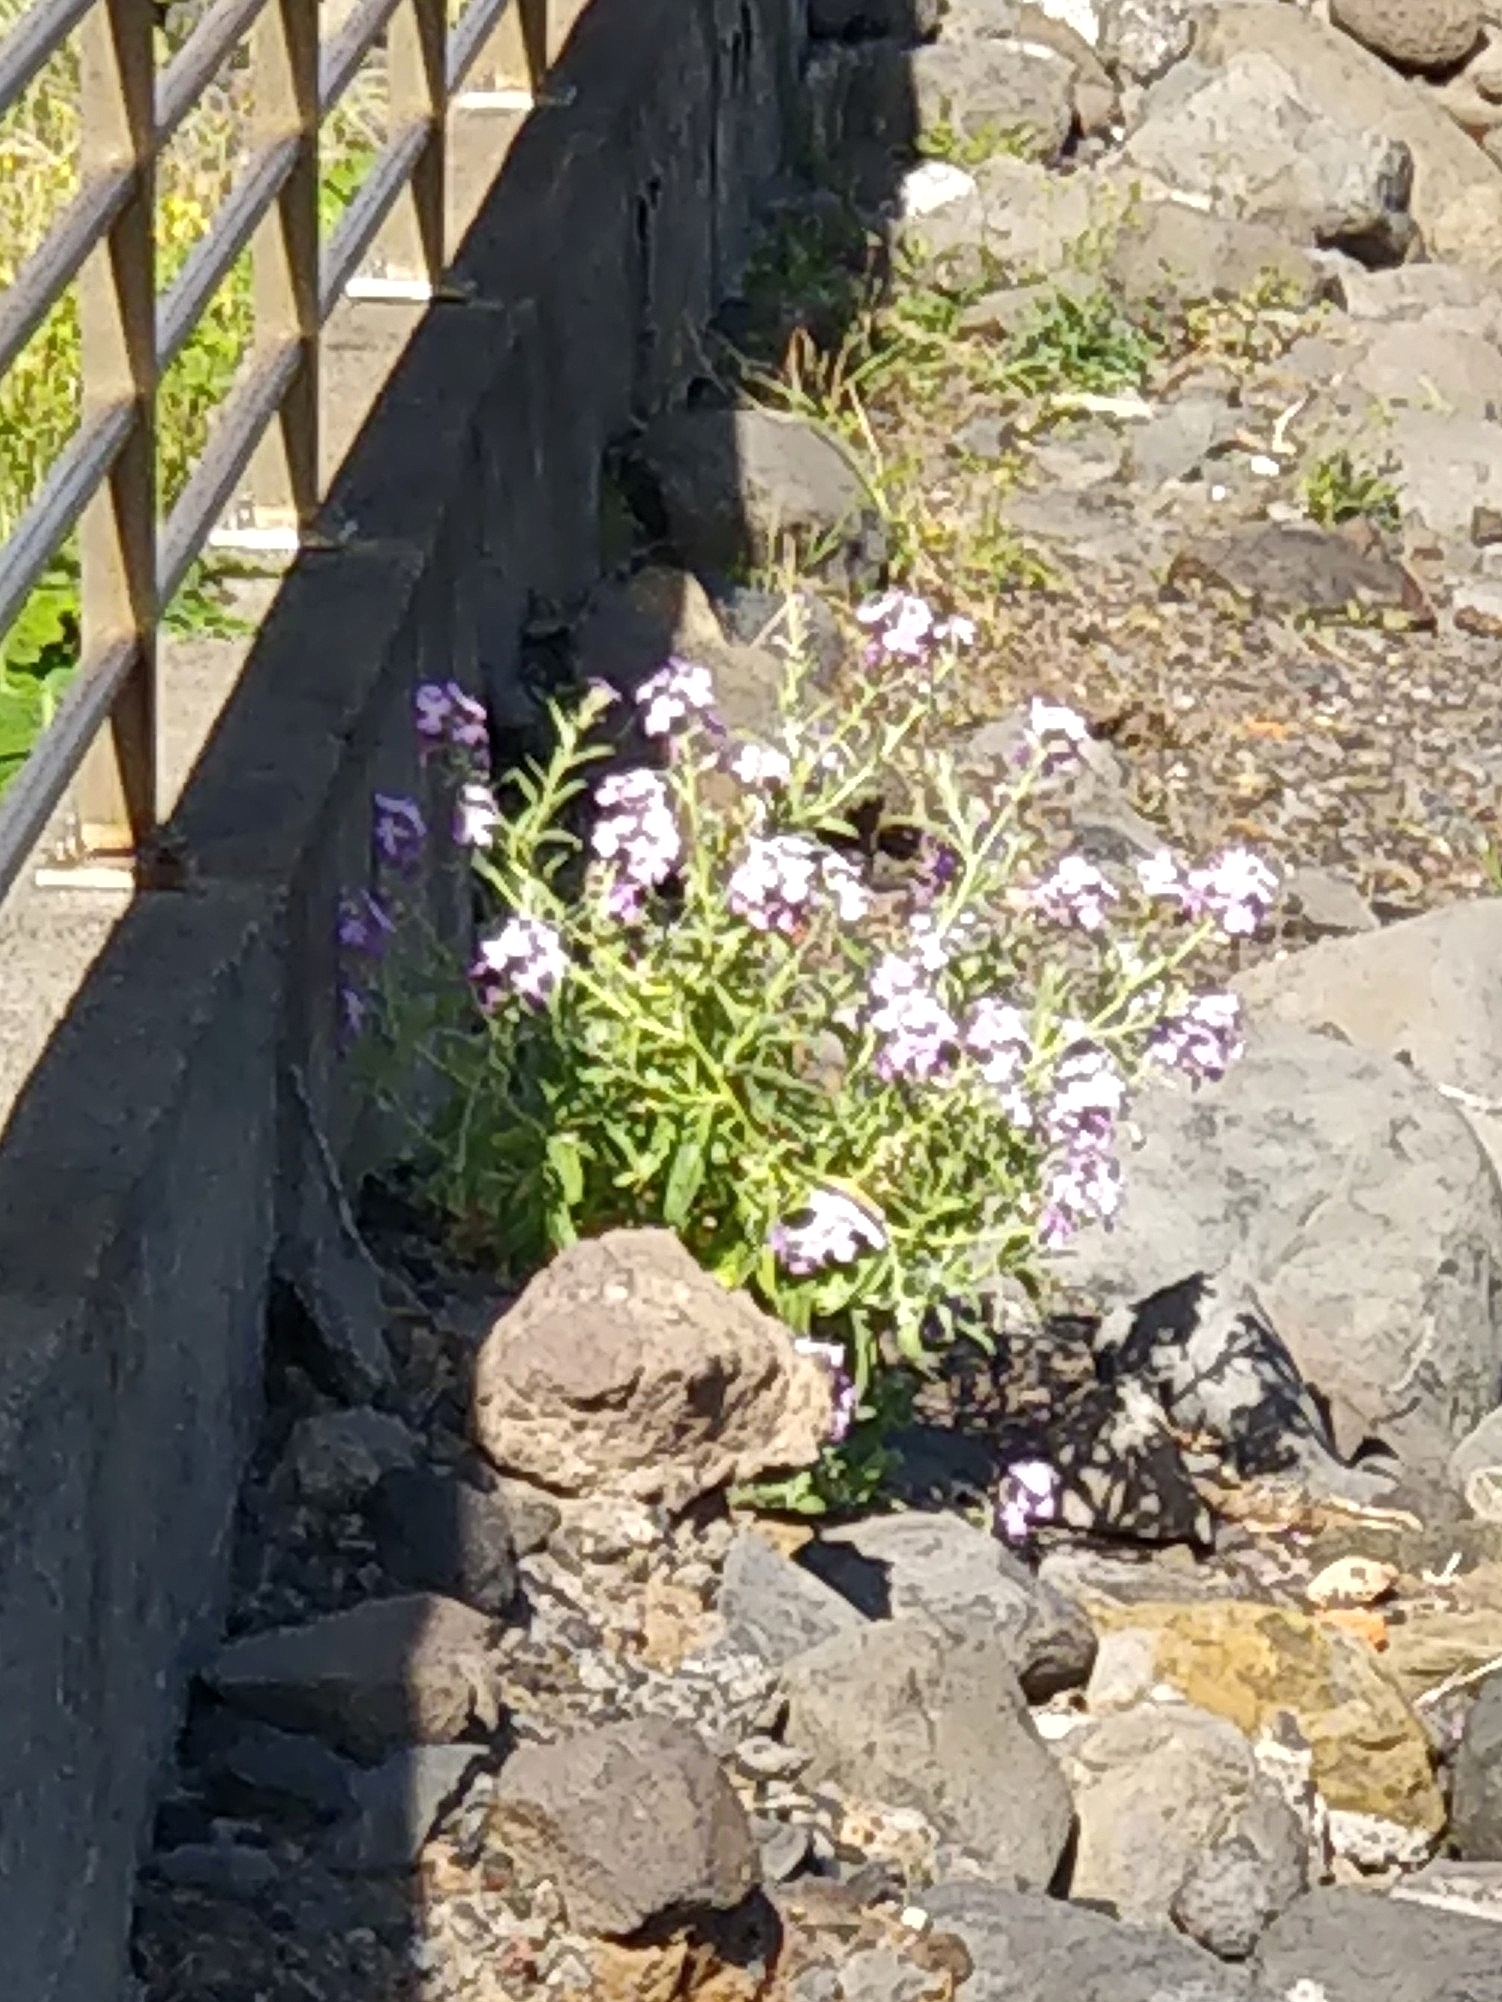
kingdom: Plantae
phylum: Tracheophyta
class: Magnoliopsida
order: Brassicales
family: Brassicaceae
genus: Matthiola
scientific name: Matthiola maderensis
